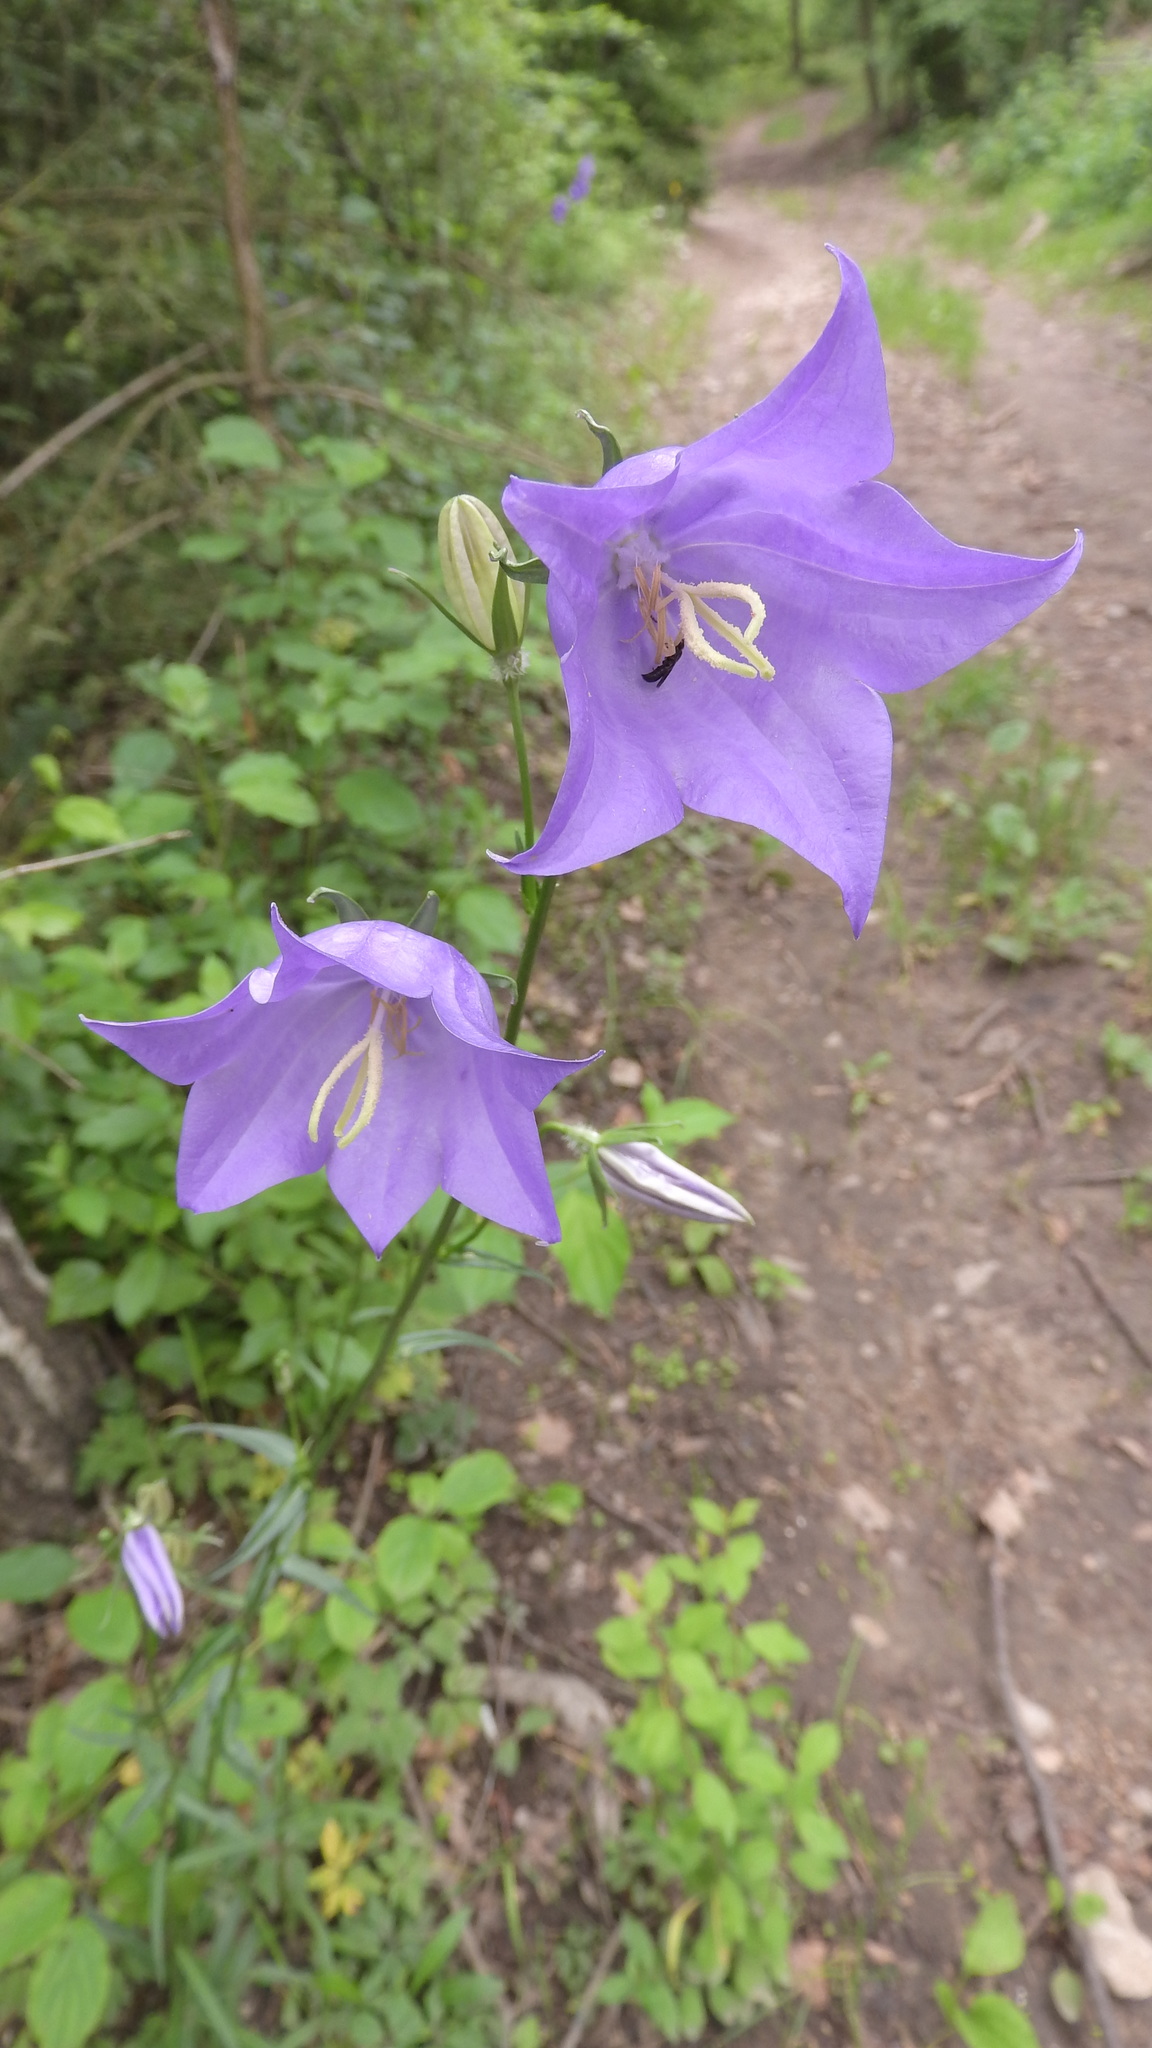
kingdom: Plantae
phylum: Tracheophyta
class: Magnoliopsida
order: Asterales
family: Campanulaceae
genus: Campanula
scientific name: Campanula persicifolia
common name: Peach-leaved bellflower
